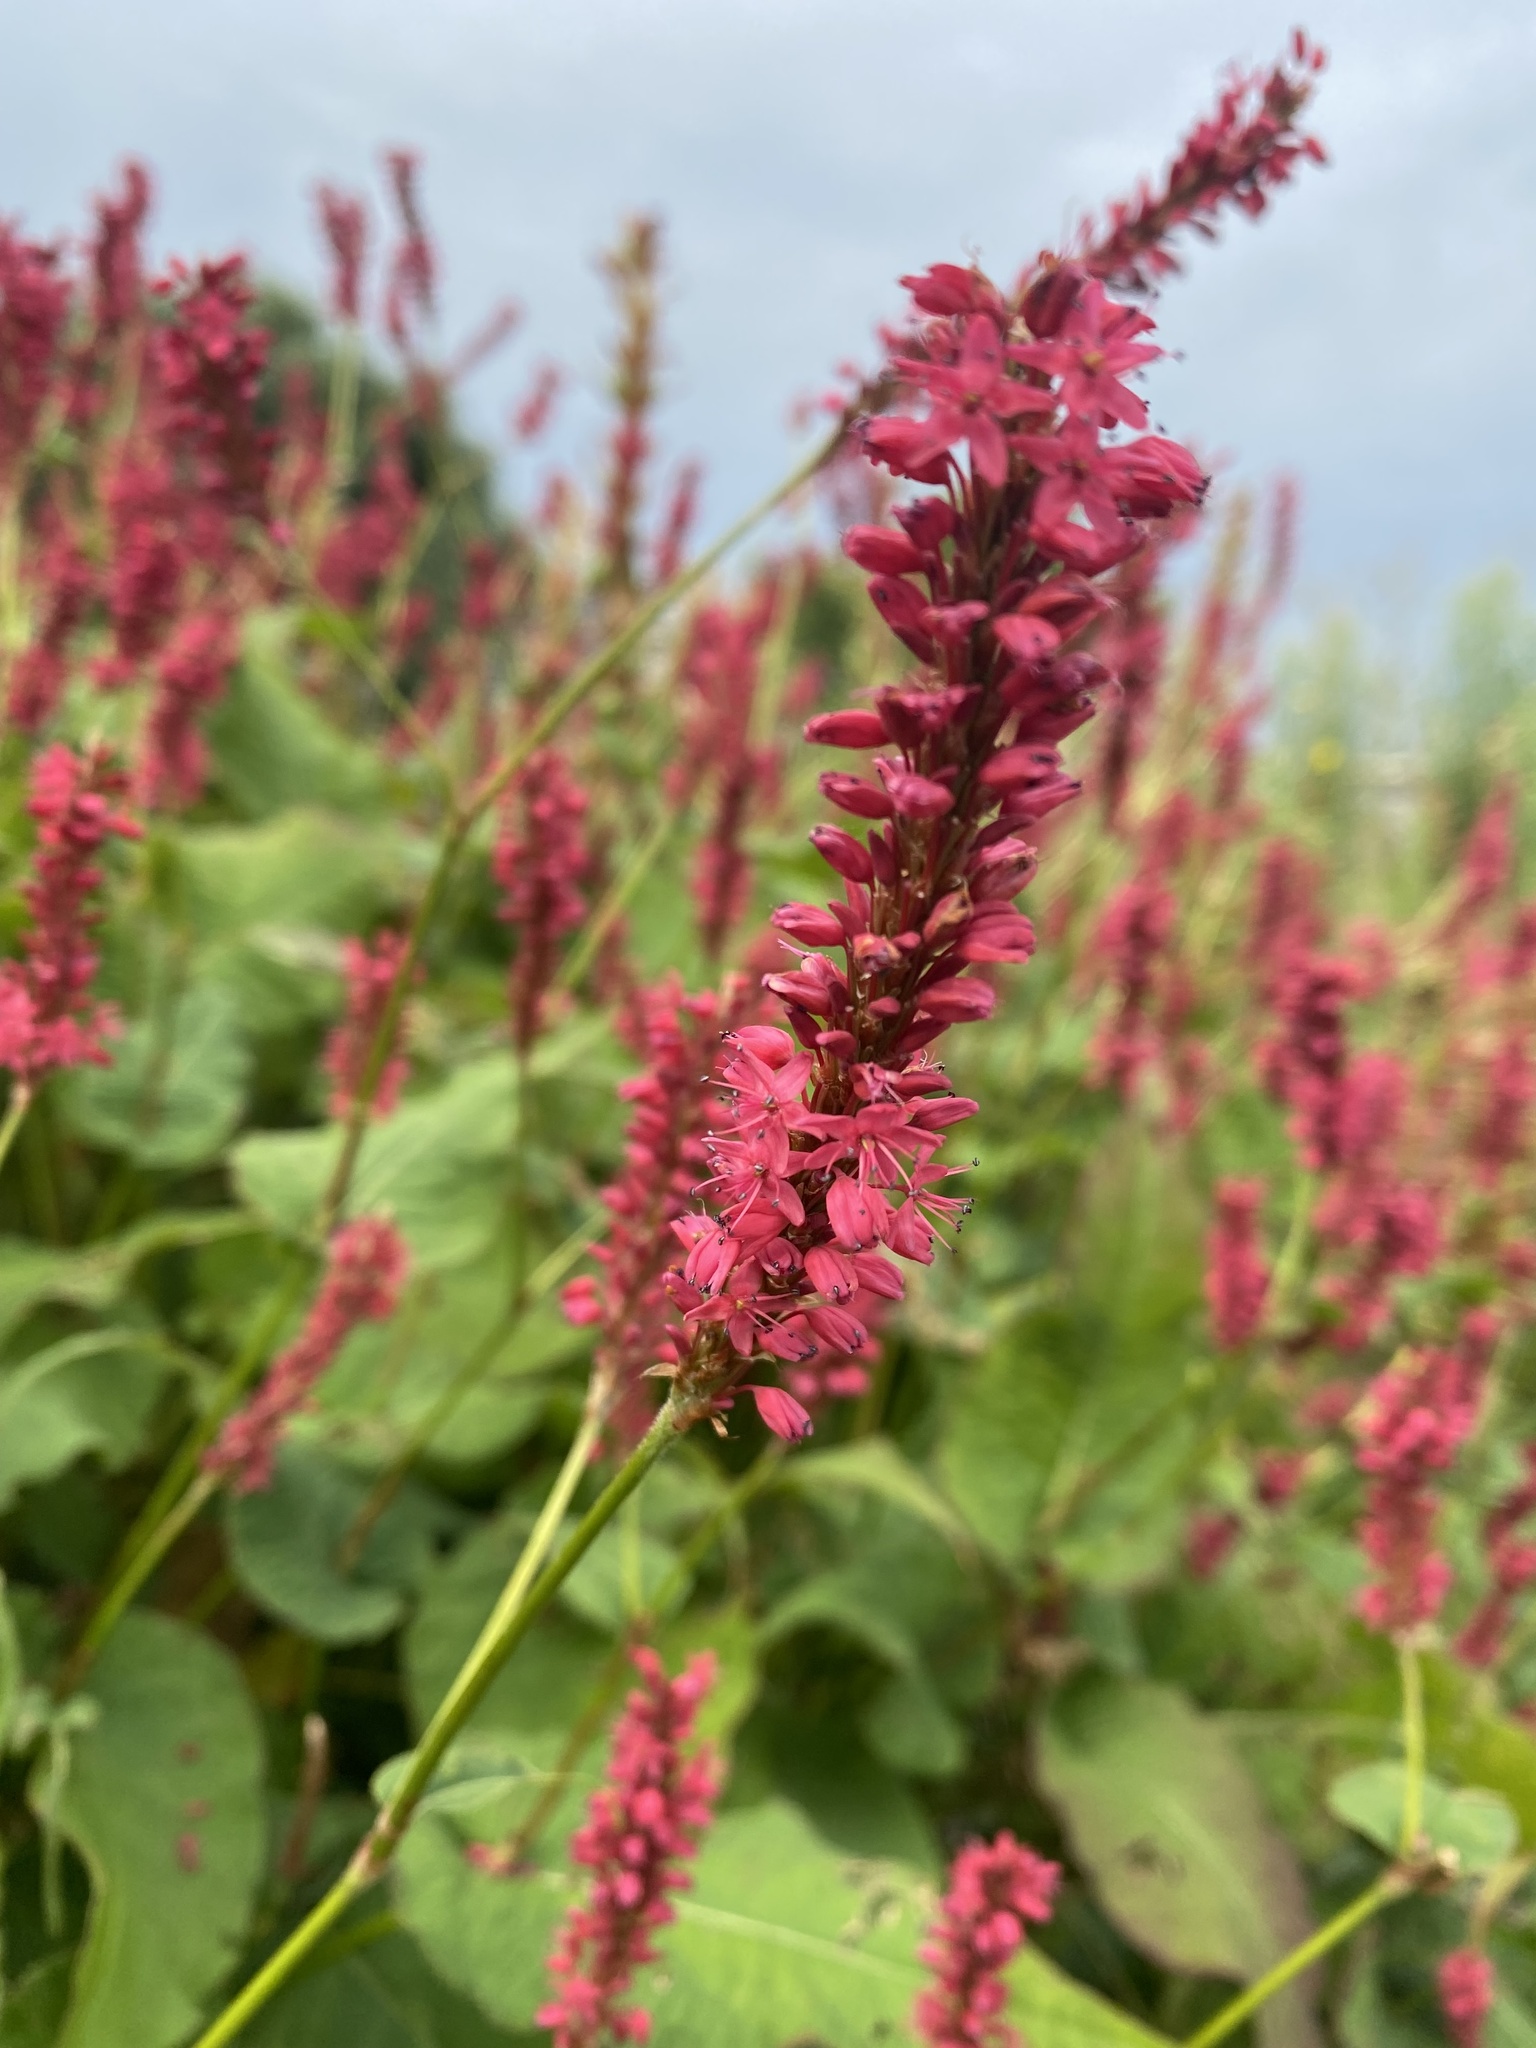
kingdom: Plantae
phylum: Tracheophyta
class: Magnoliopsida
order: Caryophyllales
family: Polygonaceae
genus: Bistorta
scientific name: Bistorta amplexicaulis
